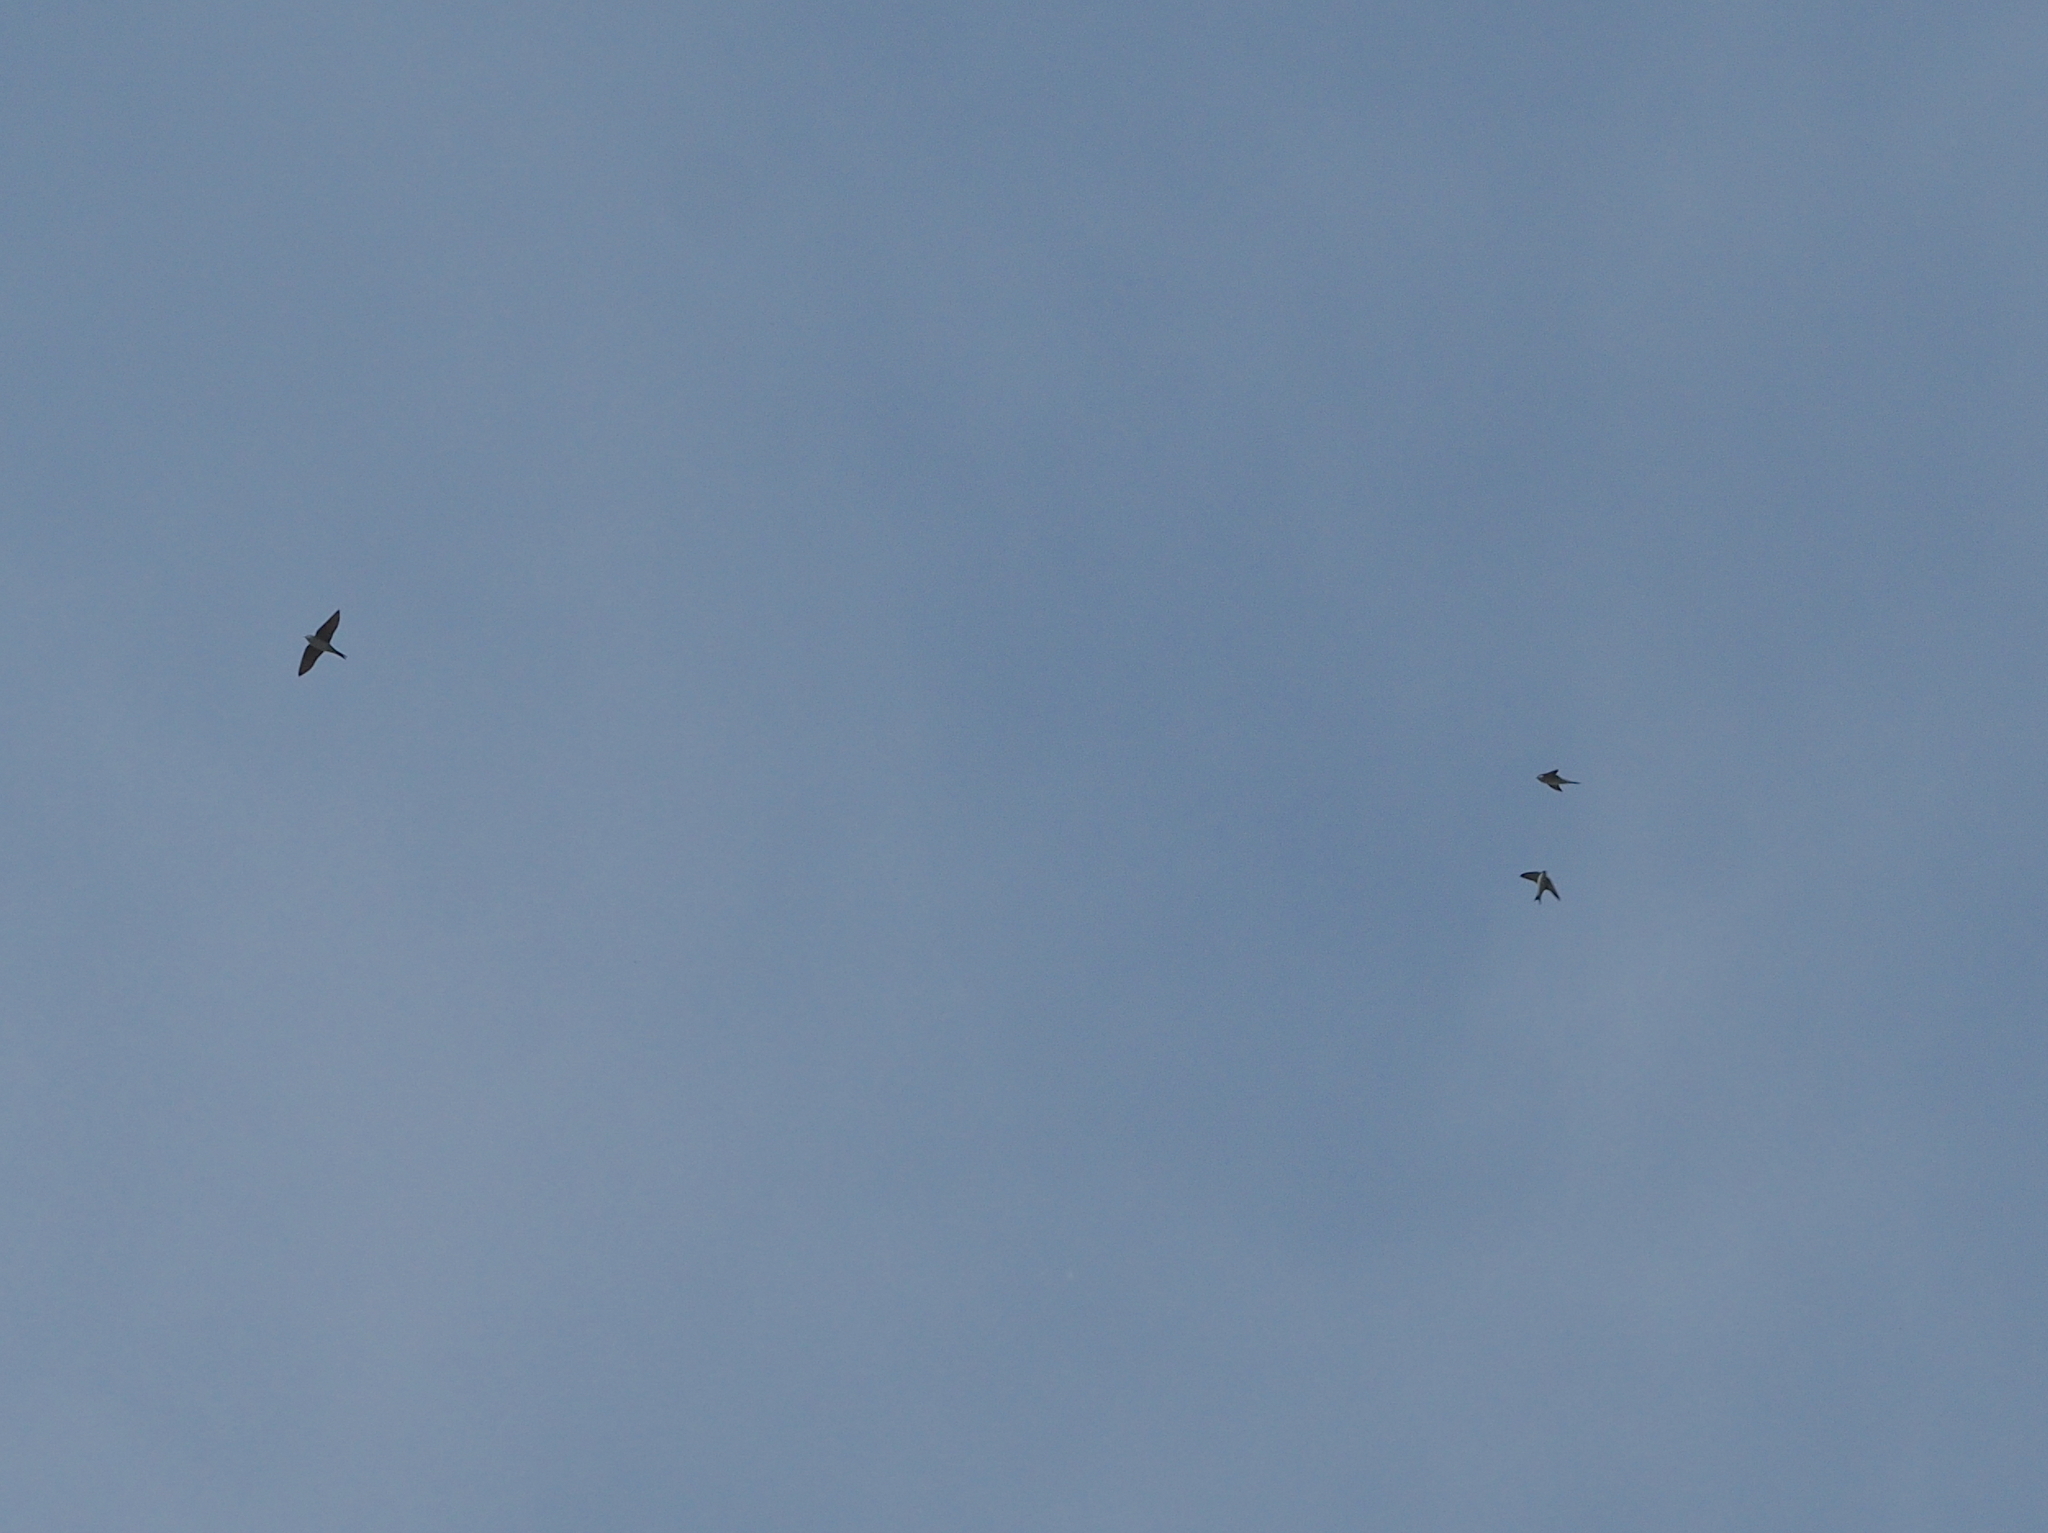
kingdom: Animalia
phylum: Chordata
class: Aves
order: Passeriformes
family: Hirundinidae
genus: Delichon
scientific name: Delichon urbicum
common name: Common house martin
